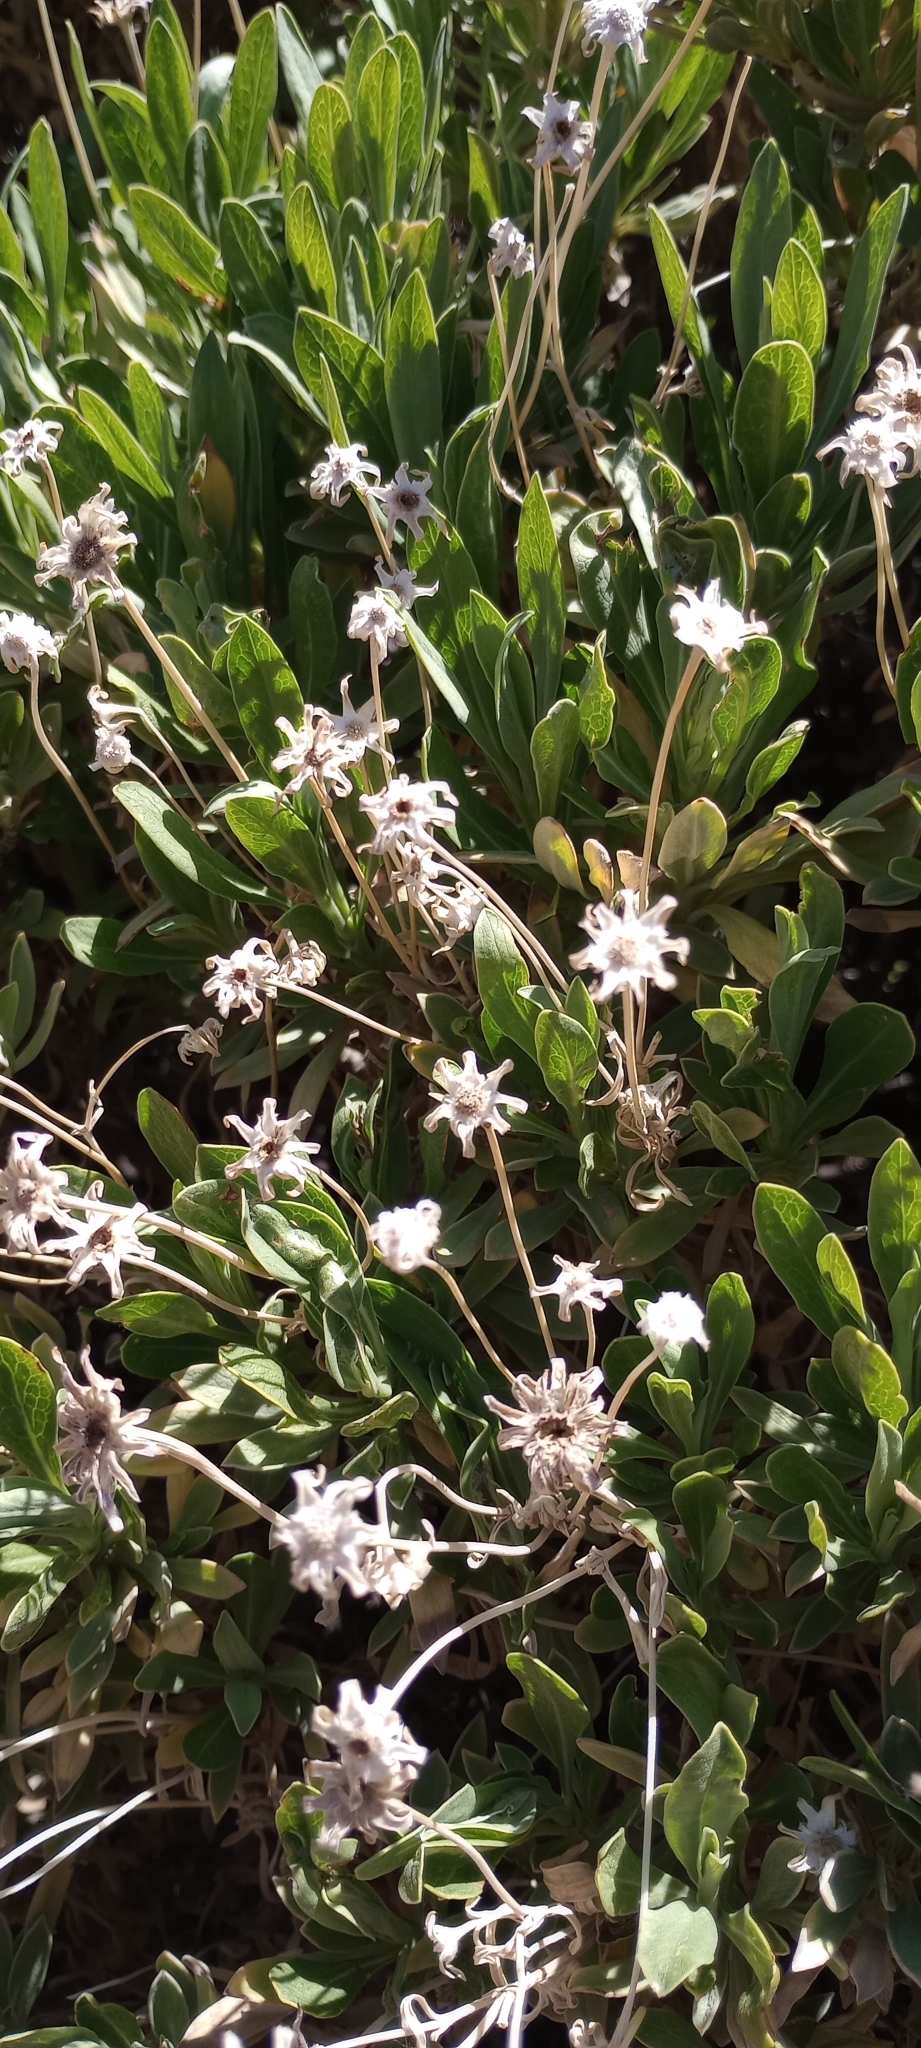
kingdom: Plantae
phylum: Tracheophyta
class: Magnoliopsida
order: Dipsacales
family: Caprifoliaceae
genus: Pterocephalus
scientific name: Pterocephalus lasiospermus
